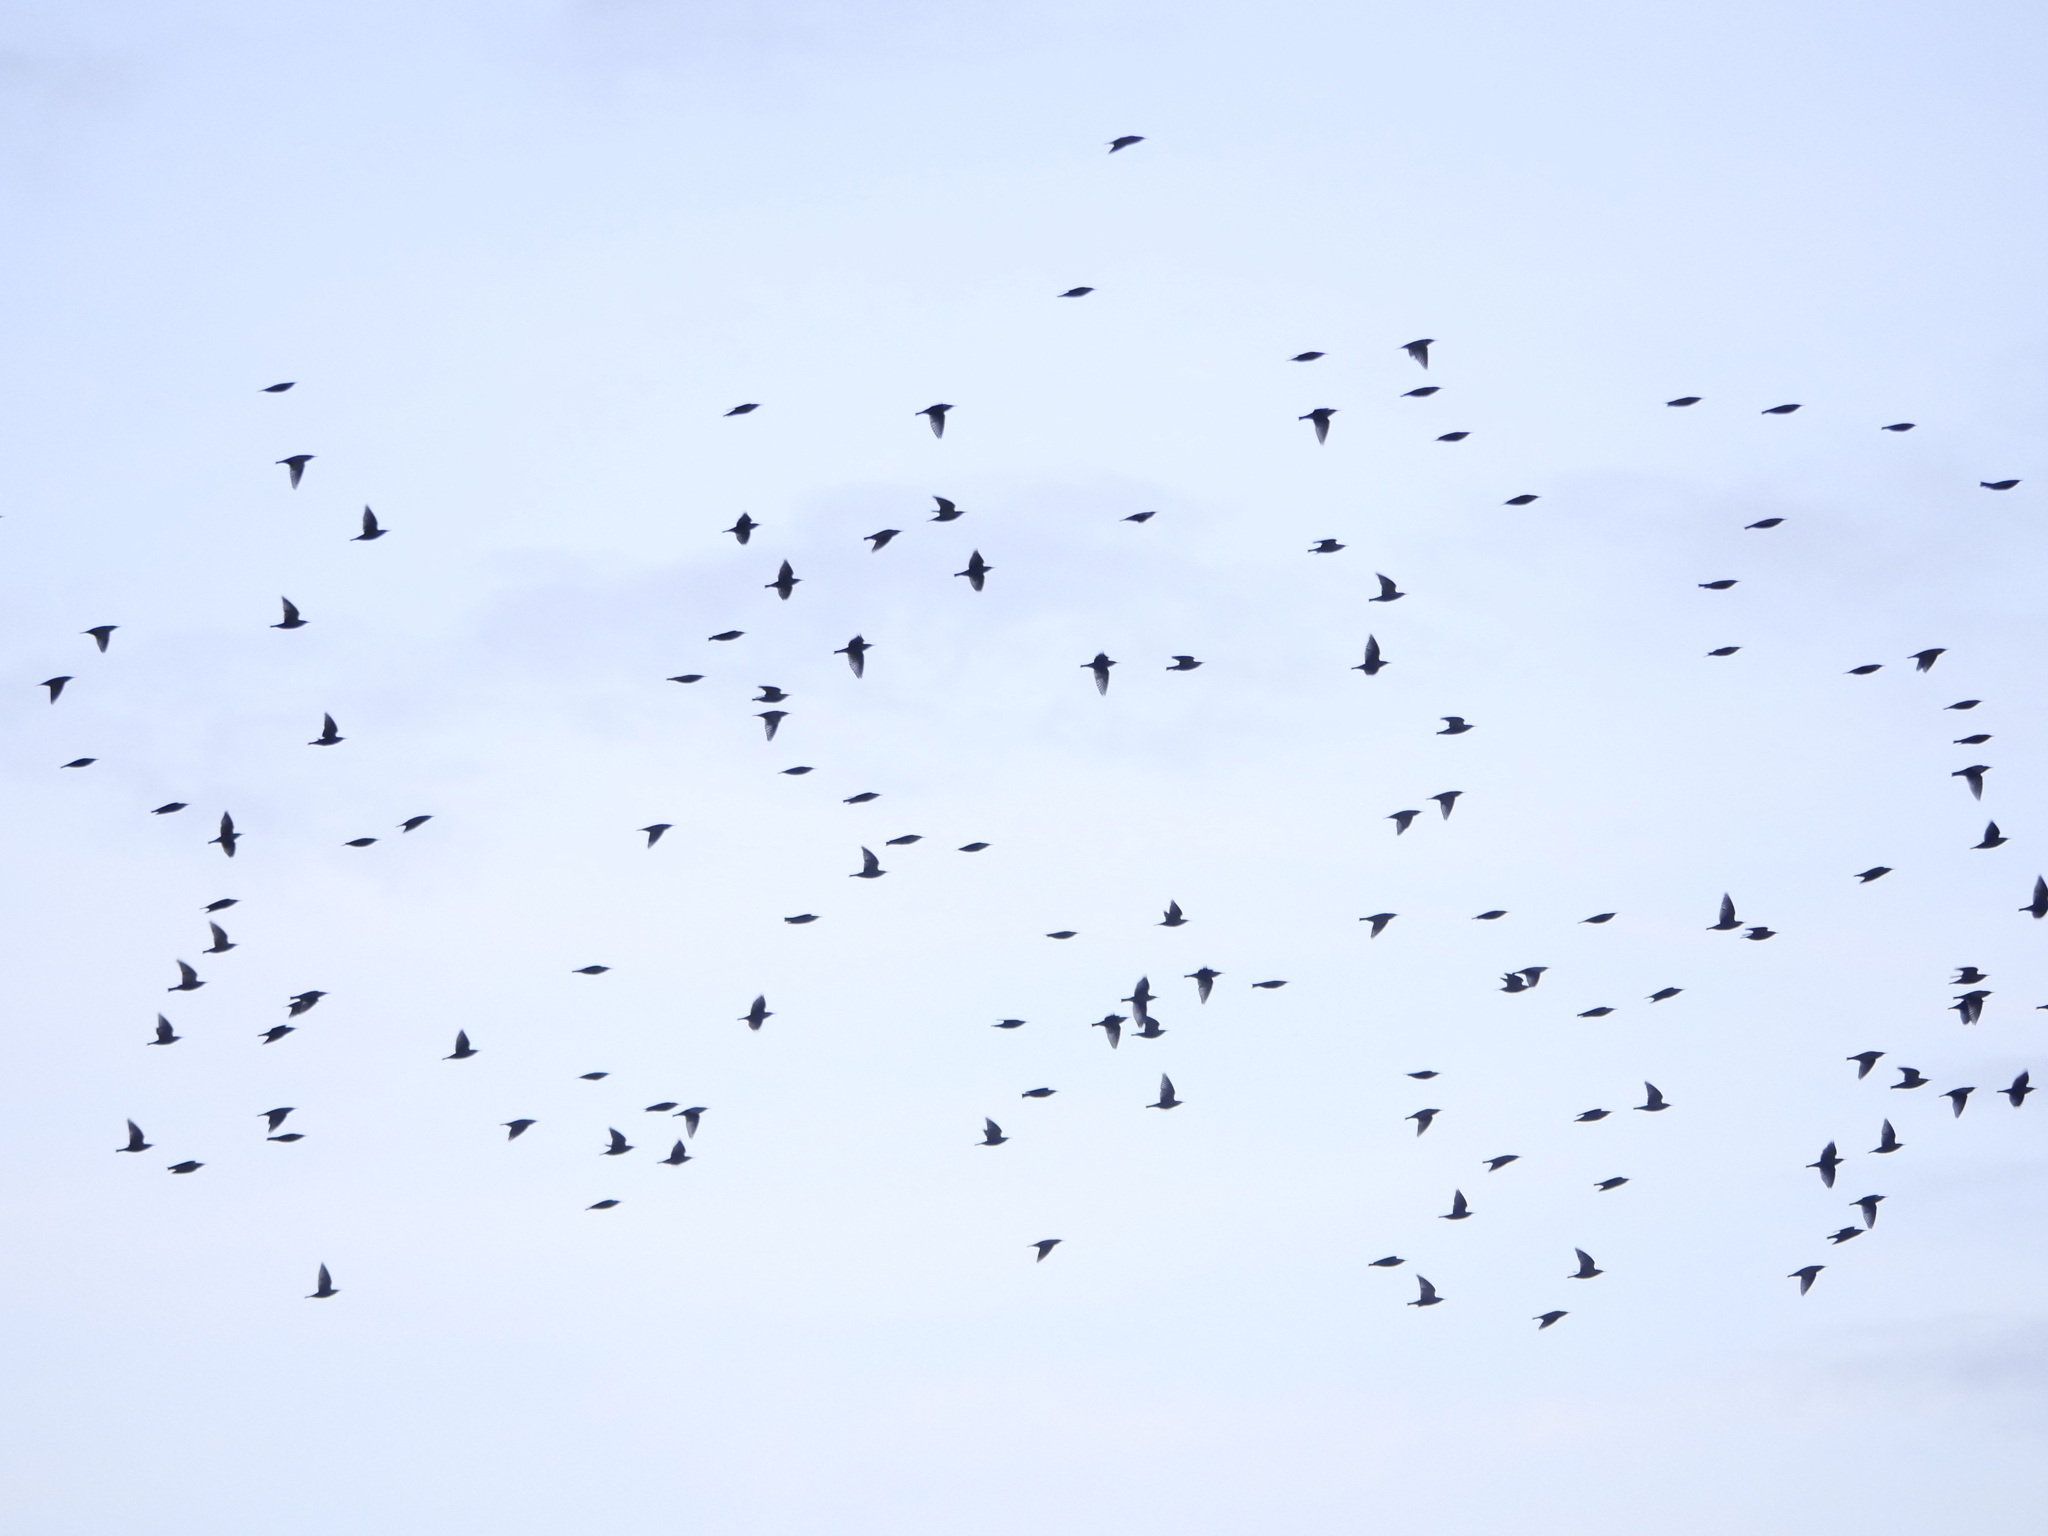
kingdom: Animalia
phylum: Chordata
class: Aves
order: Passeriformes
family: Sturnidae
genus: Sturnus
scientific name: Sturnus vulgaris
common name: Common starling
